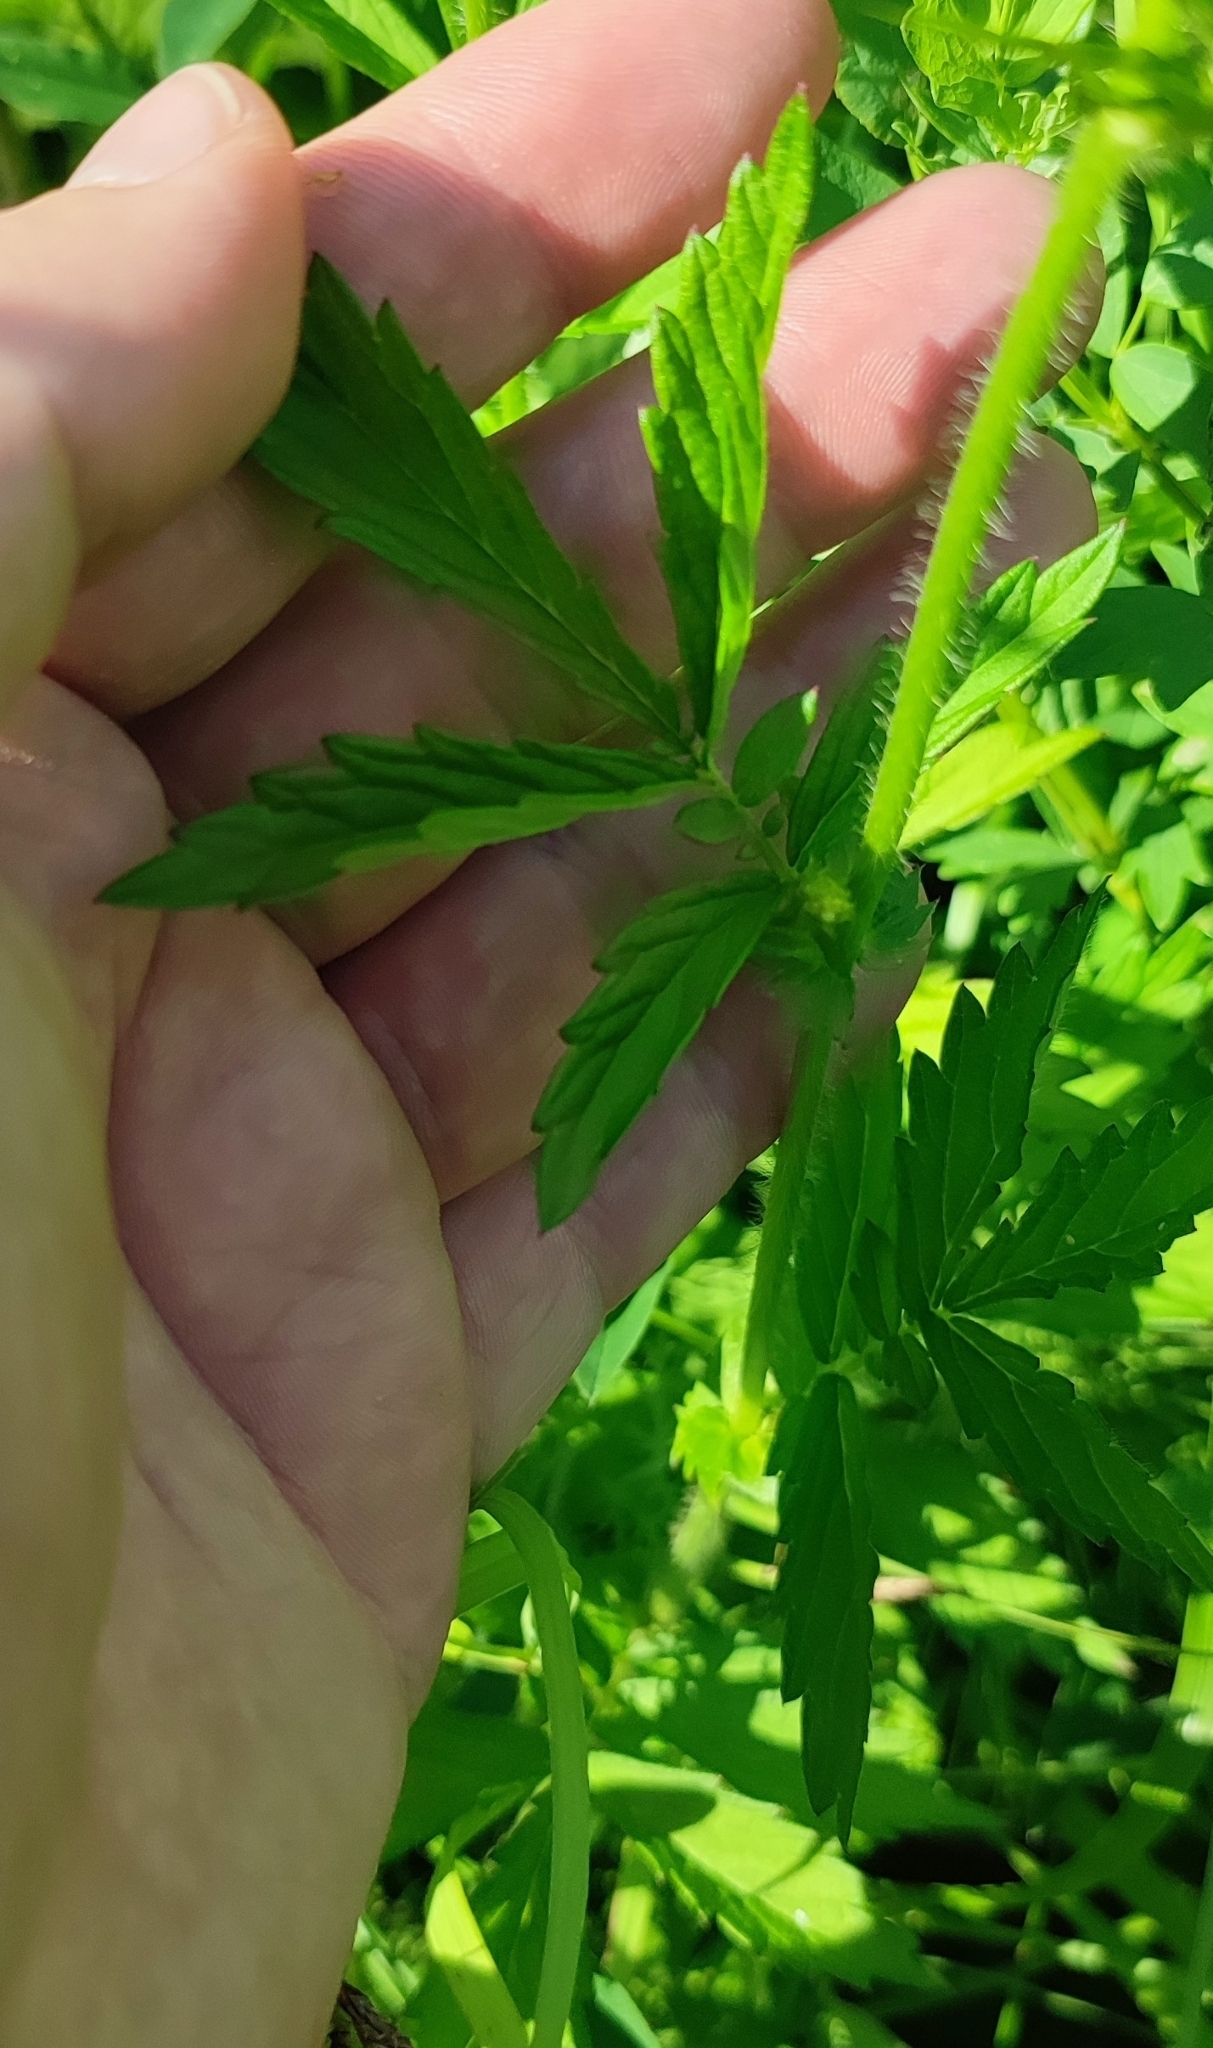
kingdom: Plantae
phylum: Tracheophyta
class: Magnoliopsida
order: Rosales
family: Rosaceae
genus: Agrimonia
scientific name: Agrimonia pilosa
